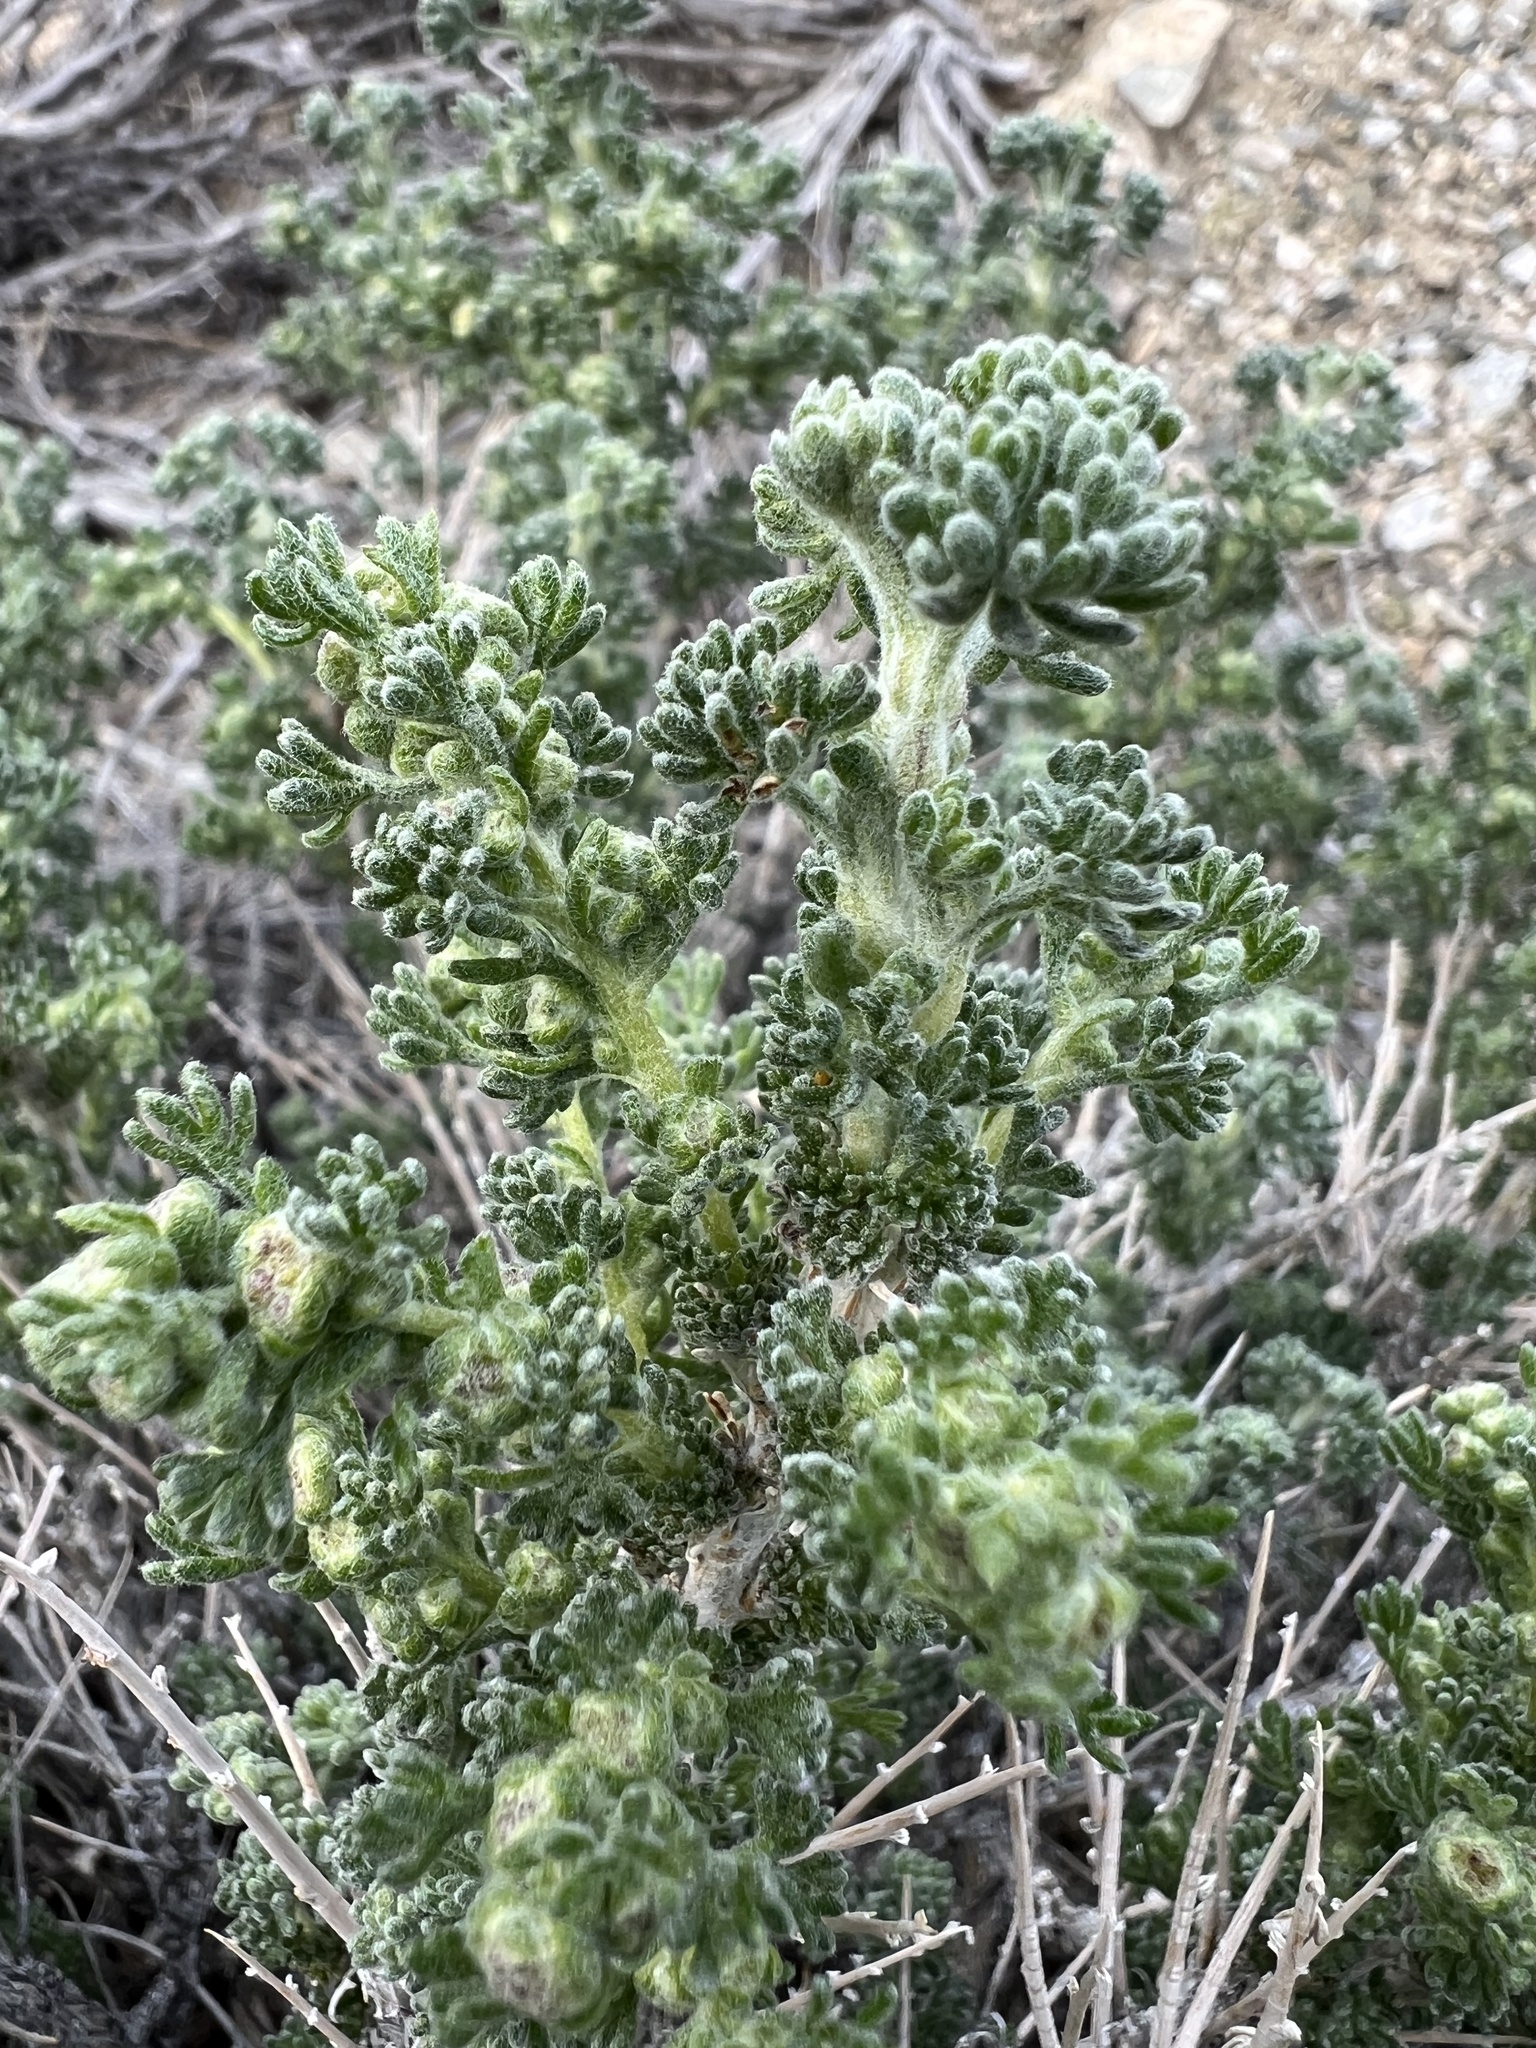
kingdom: Plantae
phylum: Tracheophyta
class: Magnoliopsida
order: Asterales
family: Asteraceae
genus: Artemisia
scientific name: Artemisia spinescens
